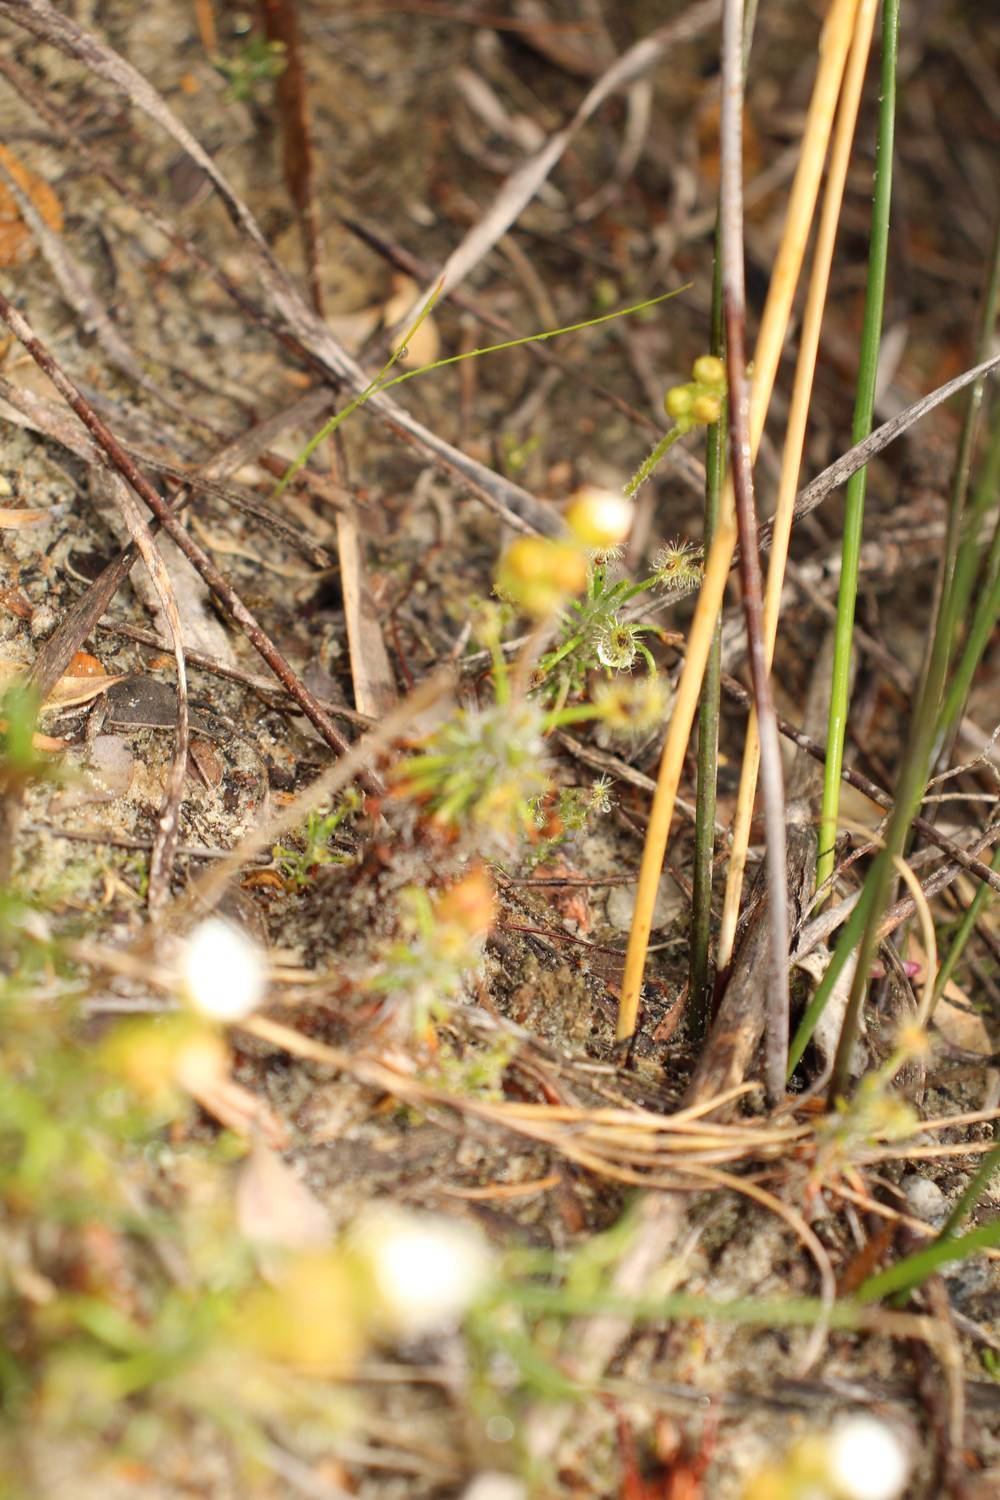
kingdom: Plantae
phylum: Tracheophyta
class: Magnoliopsida
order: Caryophyllales
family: Droseraceae
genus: Drosera
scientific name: Drosera scorpioides
